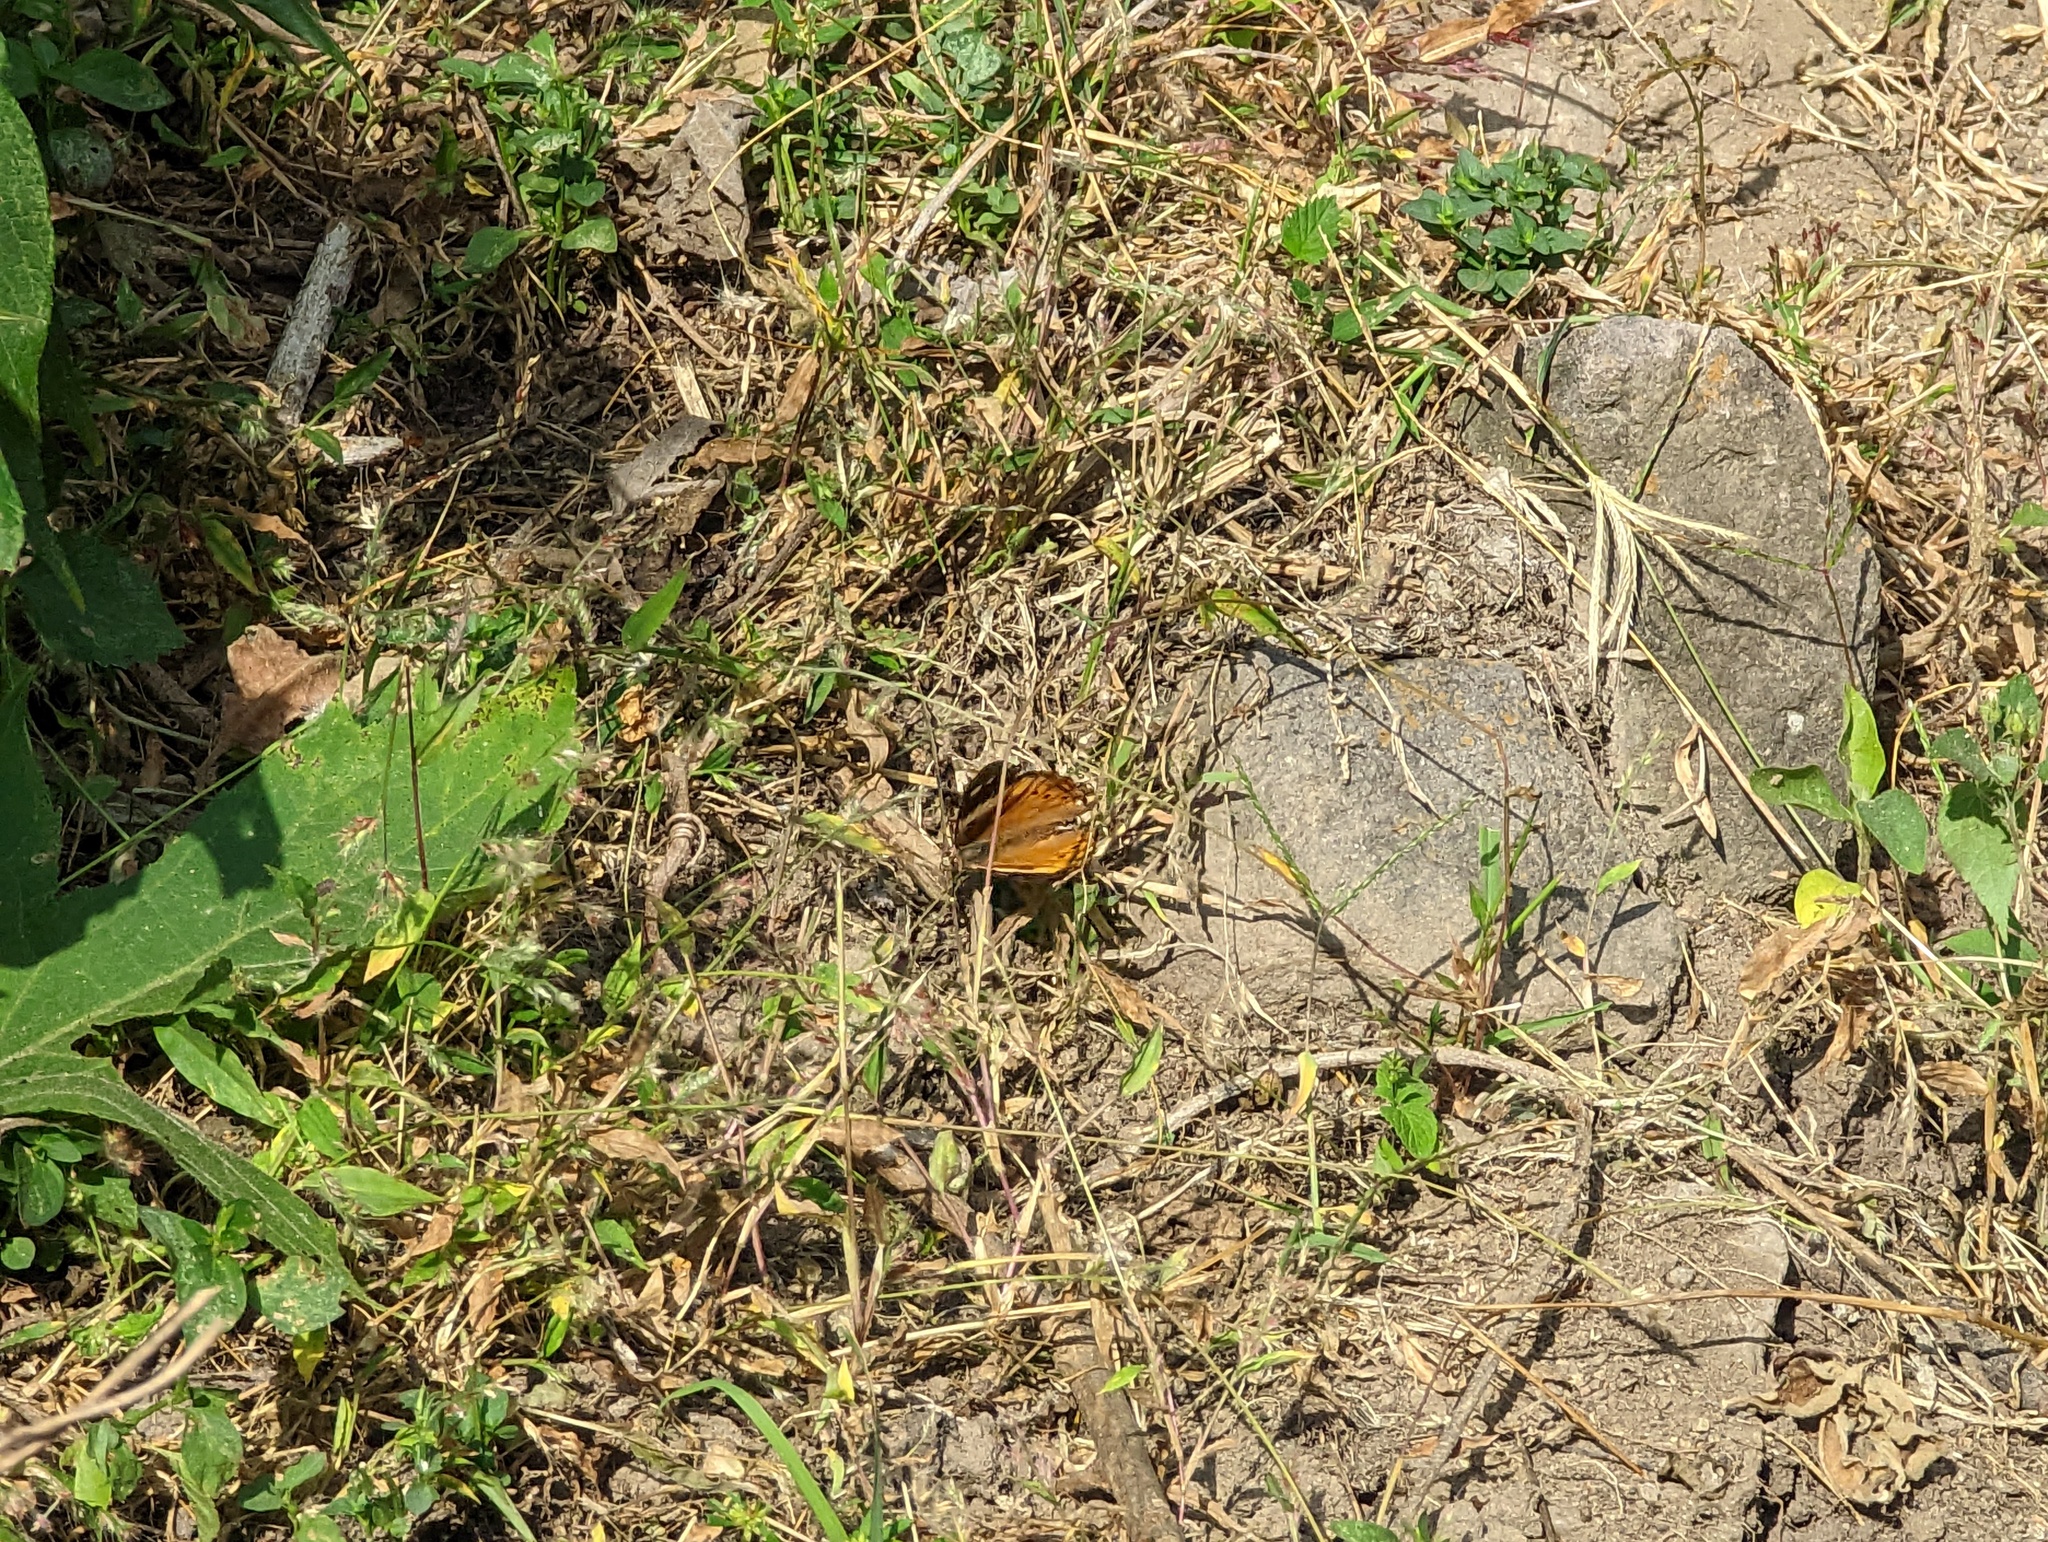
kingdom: Animalia
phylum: Arthropoda
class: Insecta
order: Lepidoptera
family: Nymphalidae
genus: Asterocampa
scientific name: Asterocampa idyja
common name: Dusky emperor
